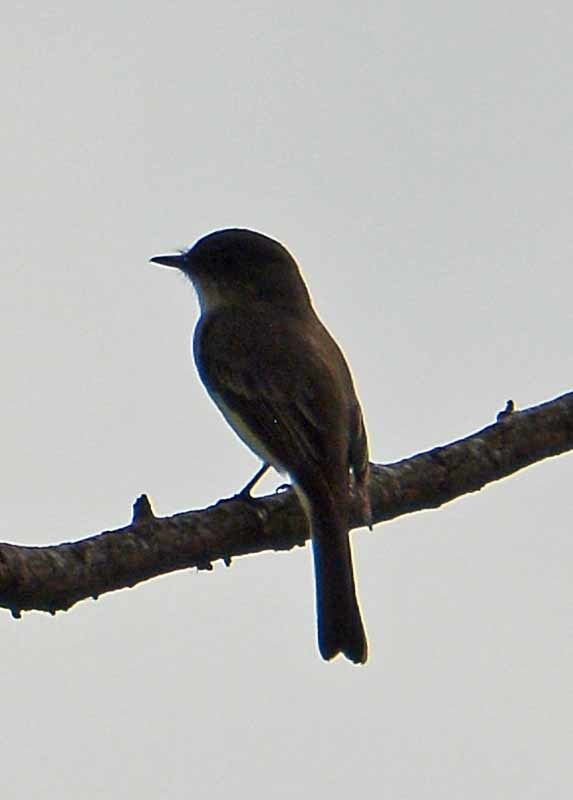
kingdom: Animalia
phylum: Chordata
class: Aves
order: Passeriformes
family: Tyrannidae
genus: Sayornis
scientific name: Sayornis phoebe
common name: Eastern phoebe
